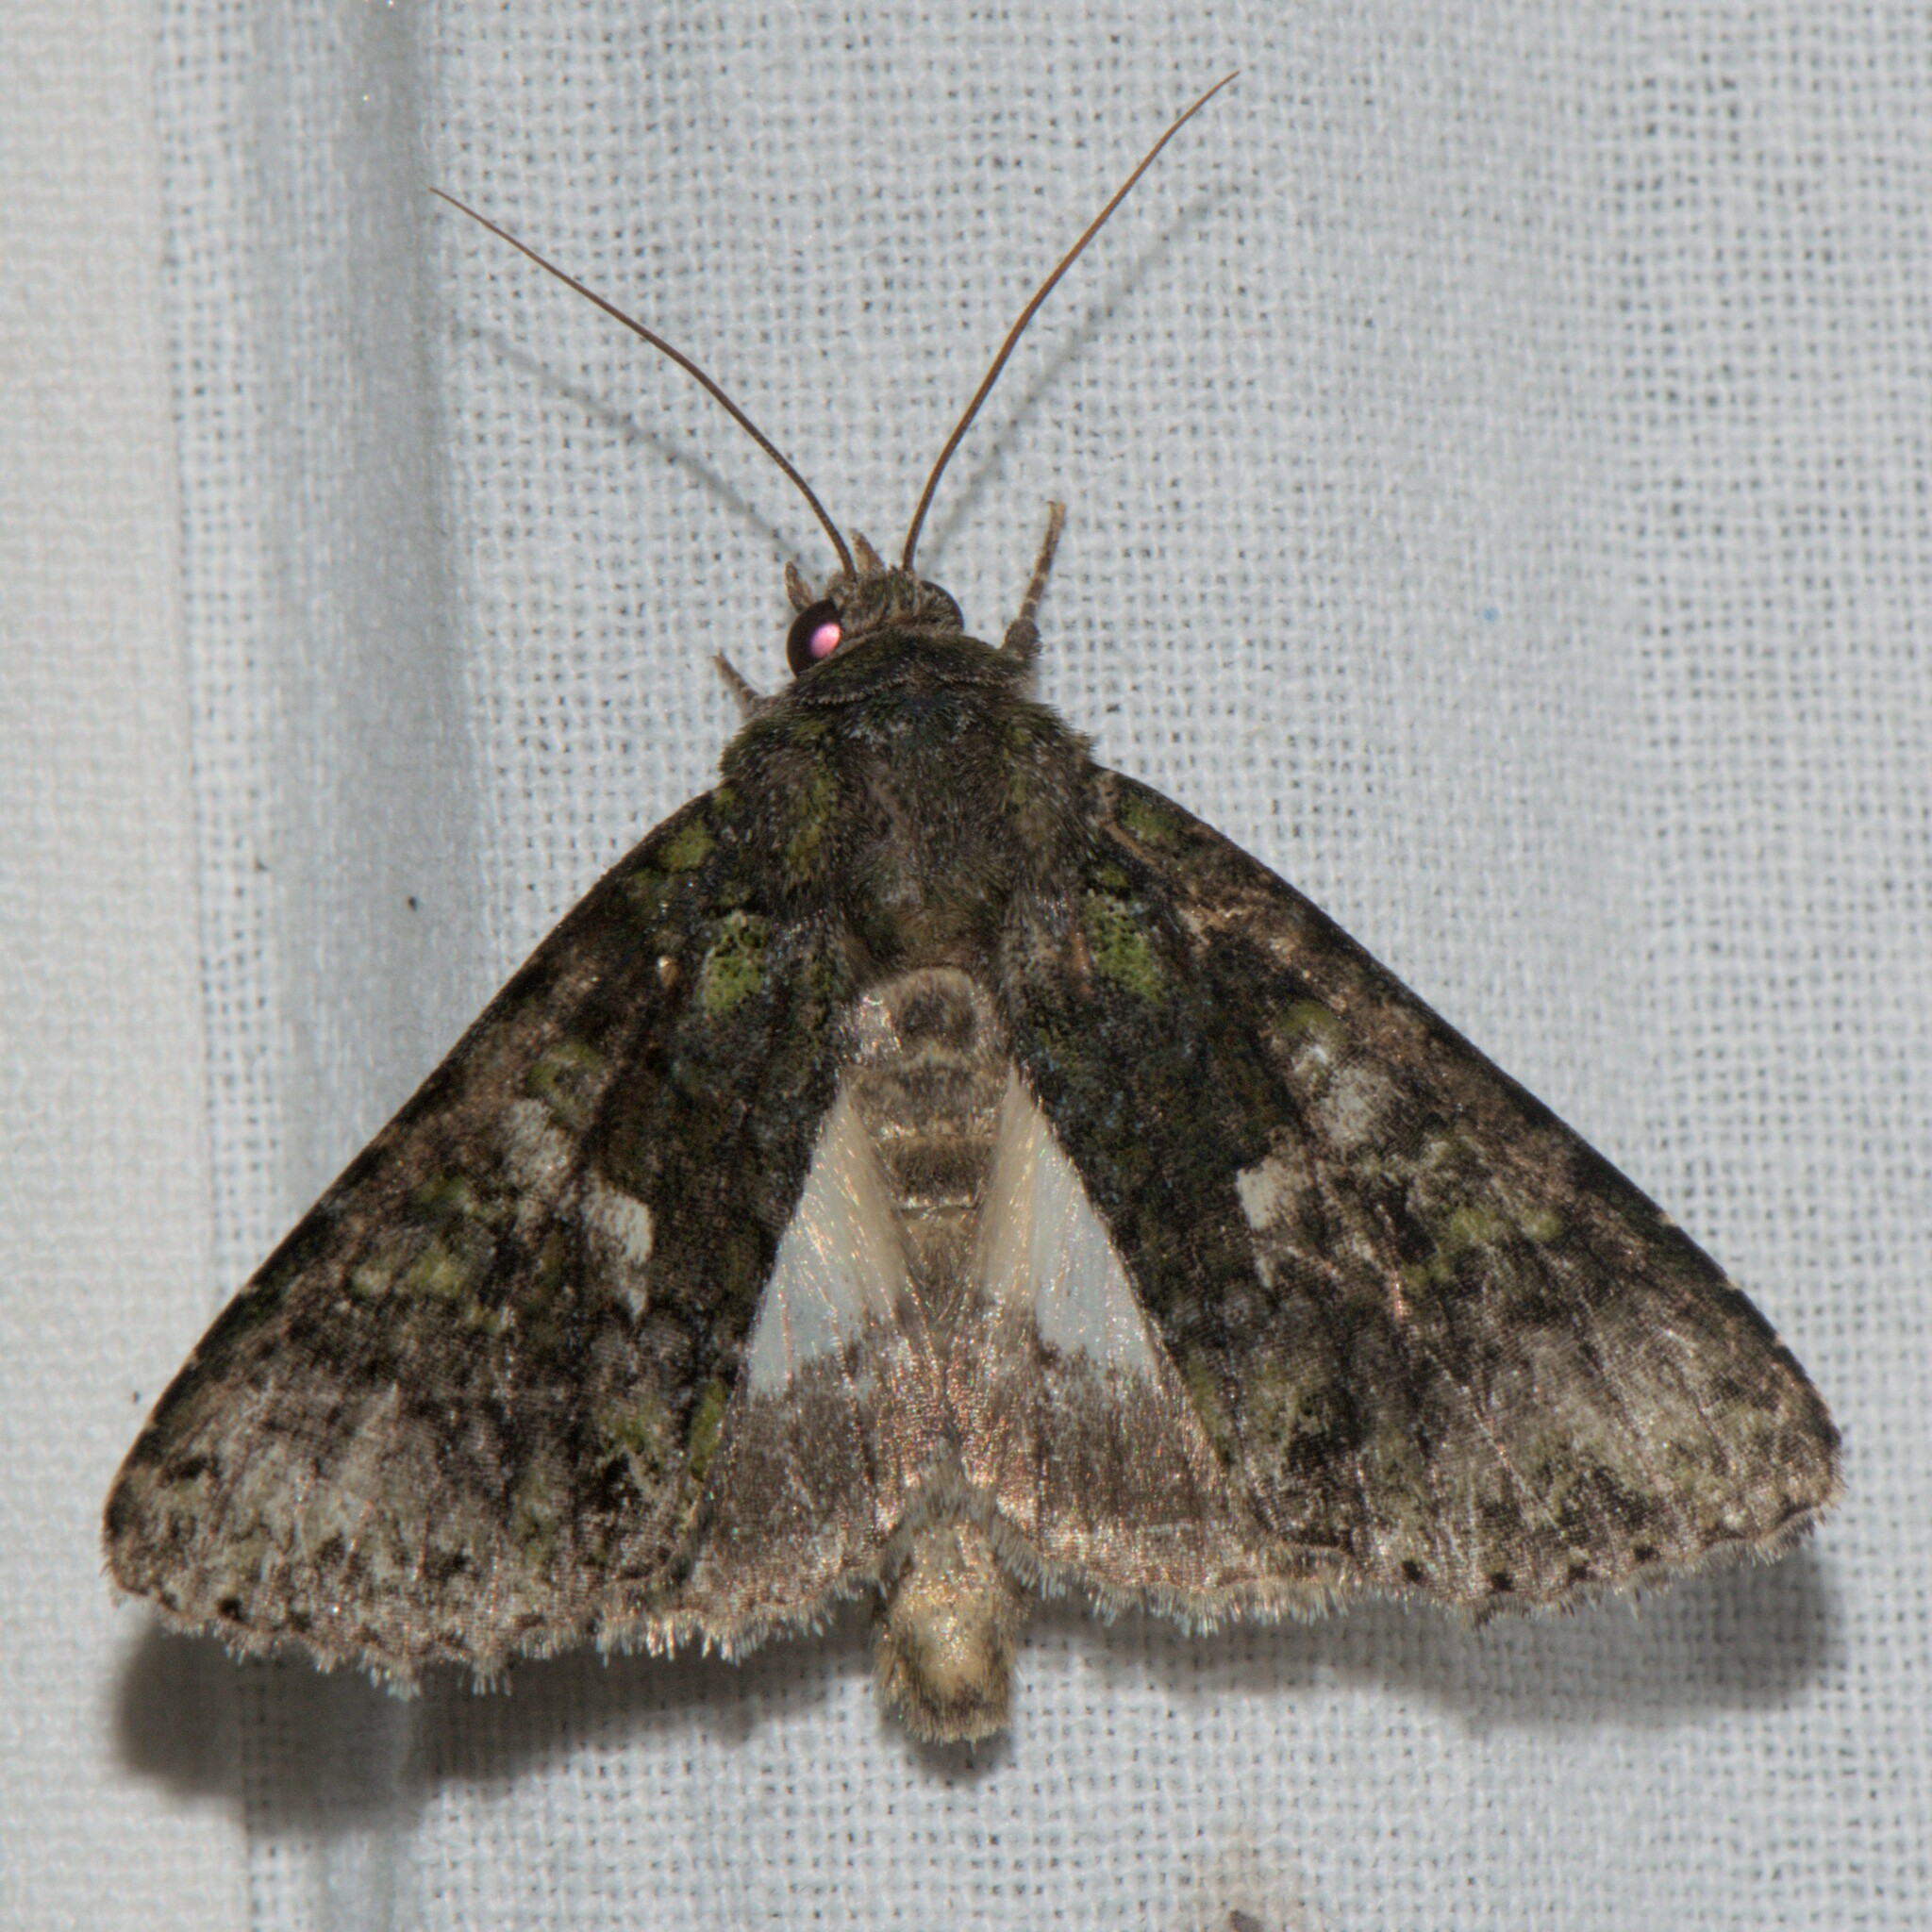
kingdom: Animalia
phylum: Arthropoda
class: Insecta
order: Lepidoptera
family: Noctuidae
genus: Trachea
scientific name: Trachea auriplena
